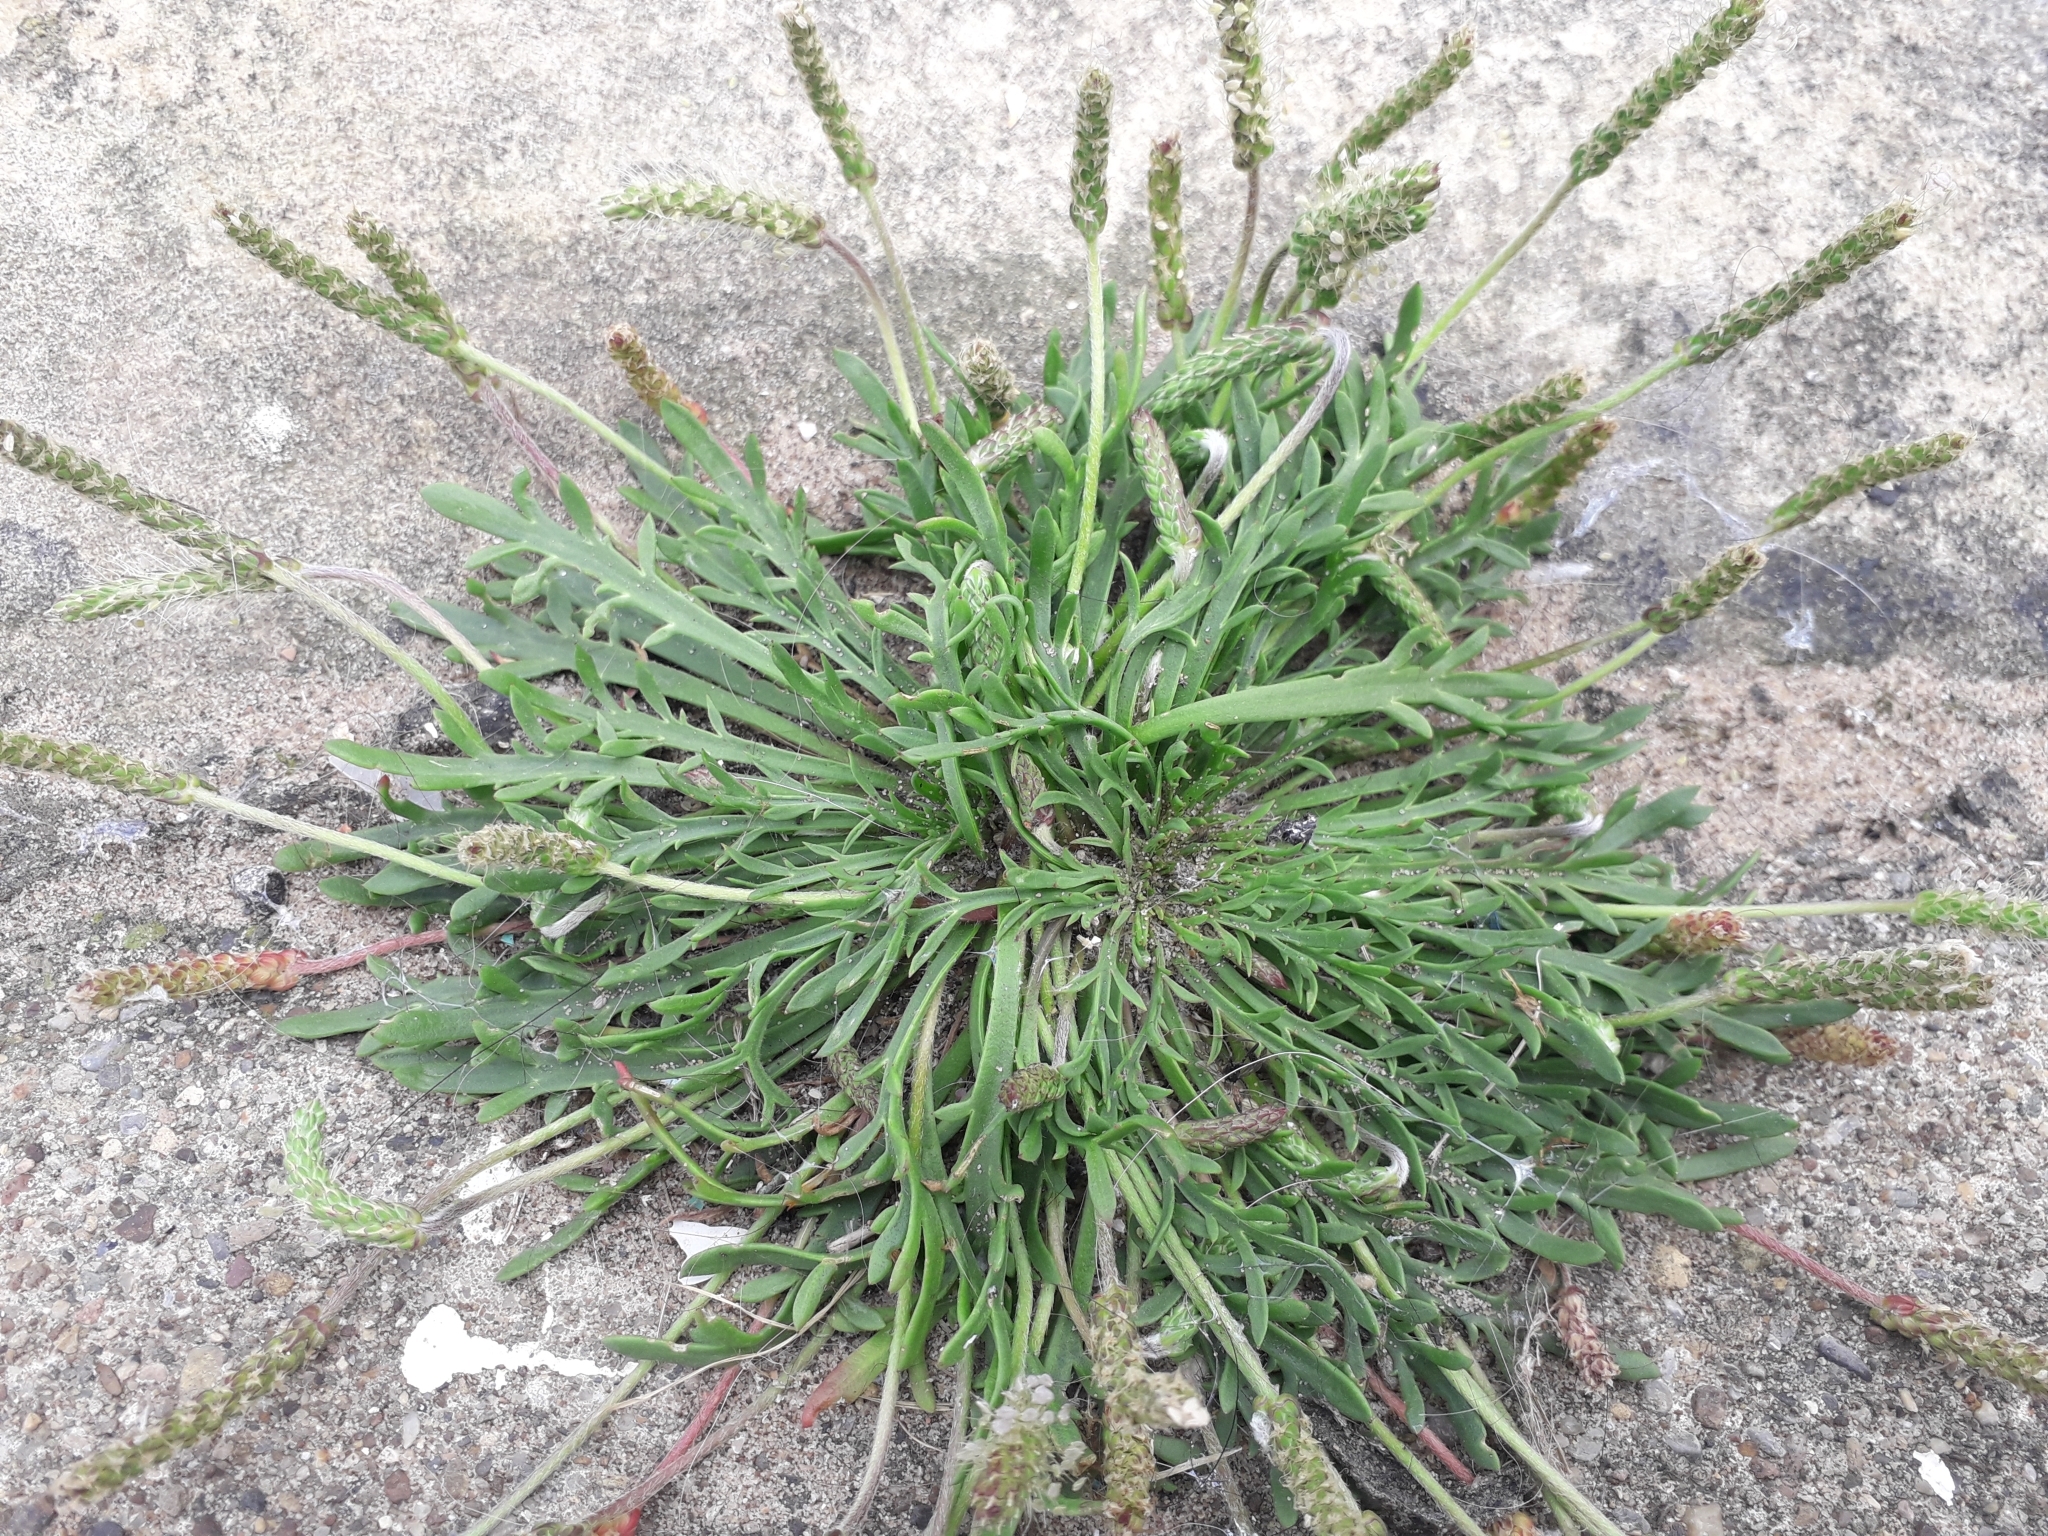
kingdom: Plantae
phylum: Tracheophyta
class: Magnoliopsida
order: Lamiales
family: Plantaginaceae
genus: Plantago
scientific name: Plantago coronopus
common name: Buck's-horn plantain
